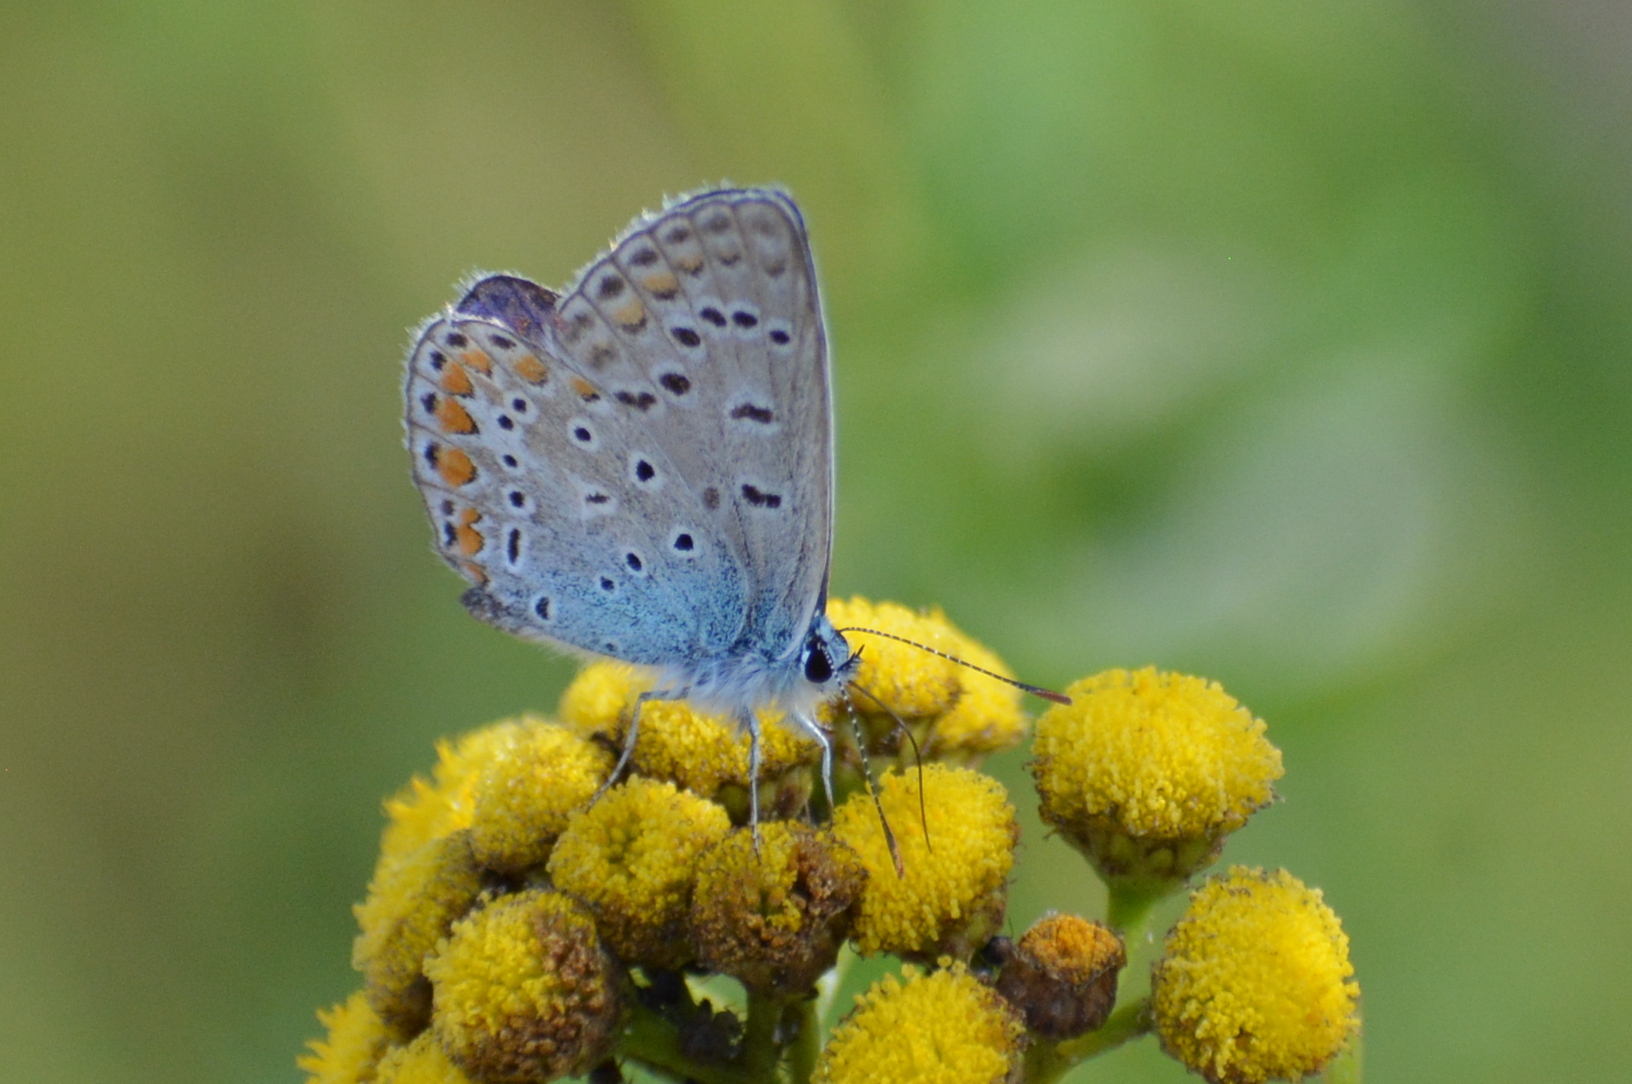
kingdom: Animalia
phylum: Arthropoda
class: Insecta
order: Lepidoptera
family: Lycaenidae
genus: Polyommatus
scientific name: Polyommatus icarus
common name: Common blue
